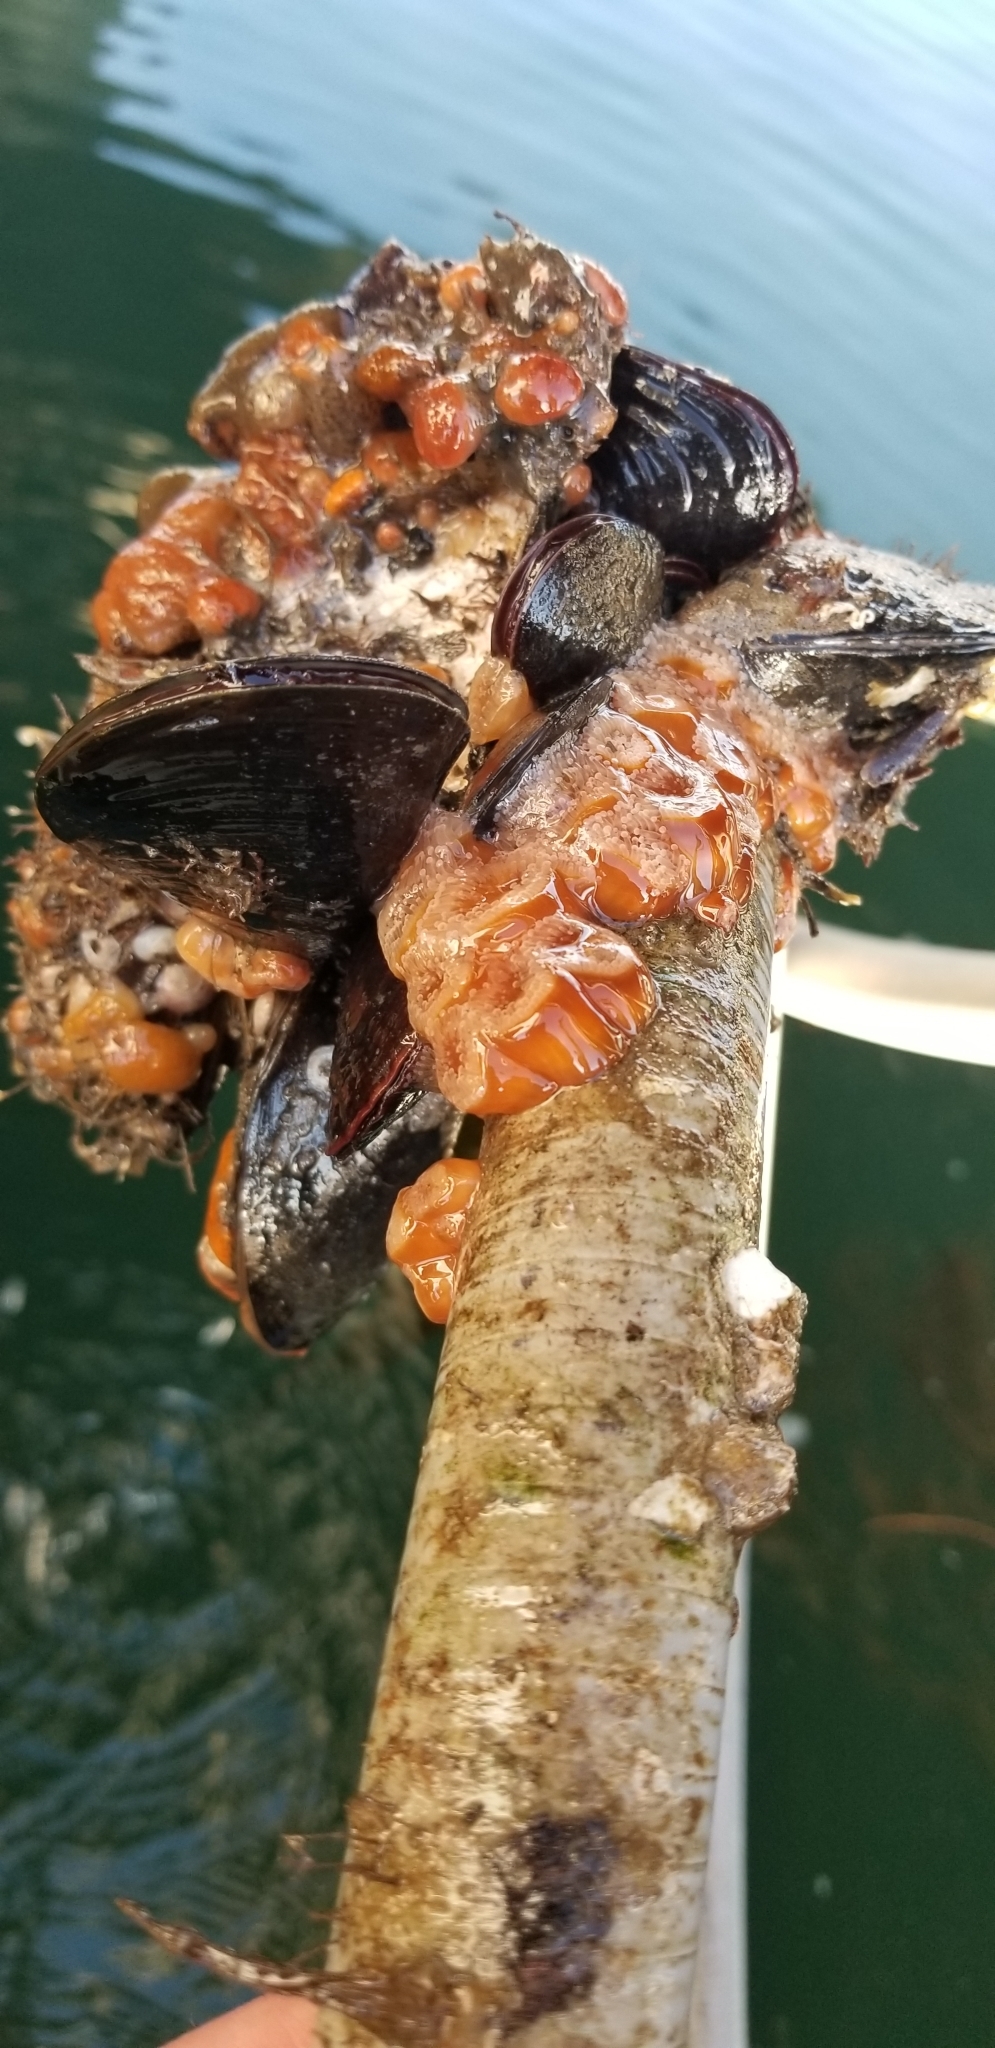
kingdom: Animalia
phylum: Cnidaria
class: Anthozoa
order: Corallimorpharia
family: Corallimorphidae
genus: Corynactis
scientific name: Corynactis californica
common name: Strawberry corallimorpharian
